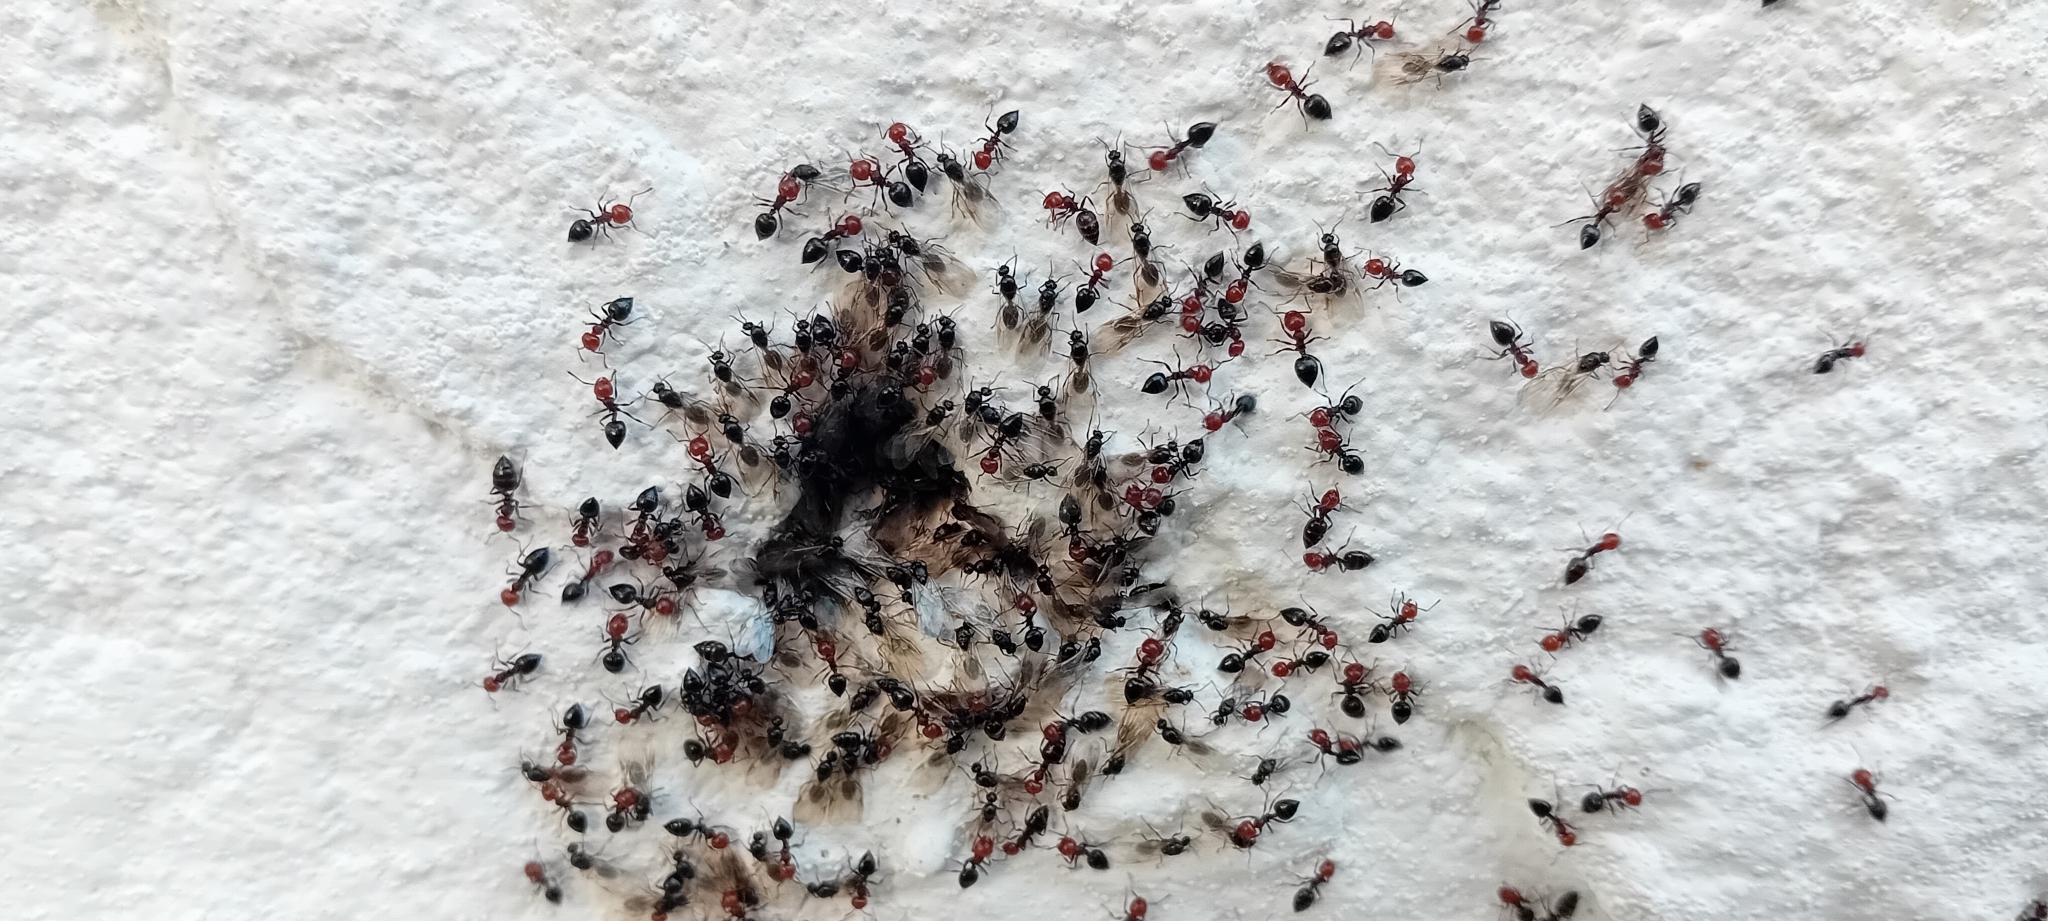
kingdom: Animalia
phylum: Arthropoda
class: Insecta
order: Hymenoptera
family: Formicidae
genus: Crematogaster
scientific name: Crematogaster scutellaris
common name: Fourmi du liège
